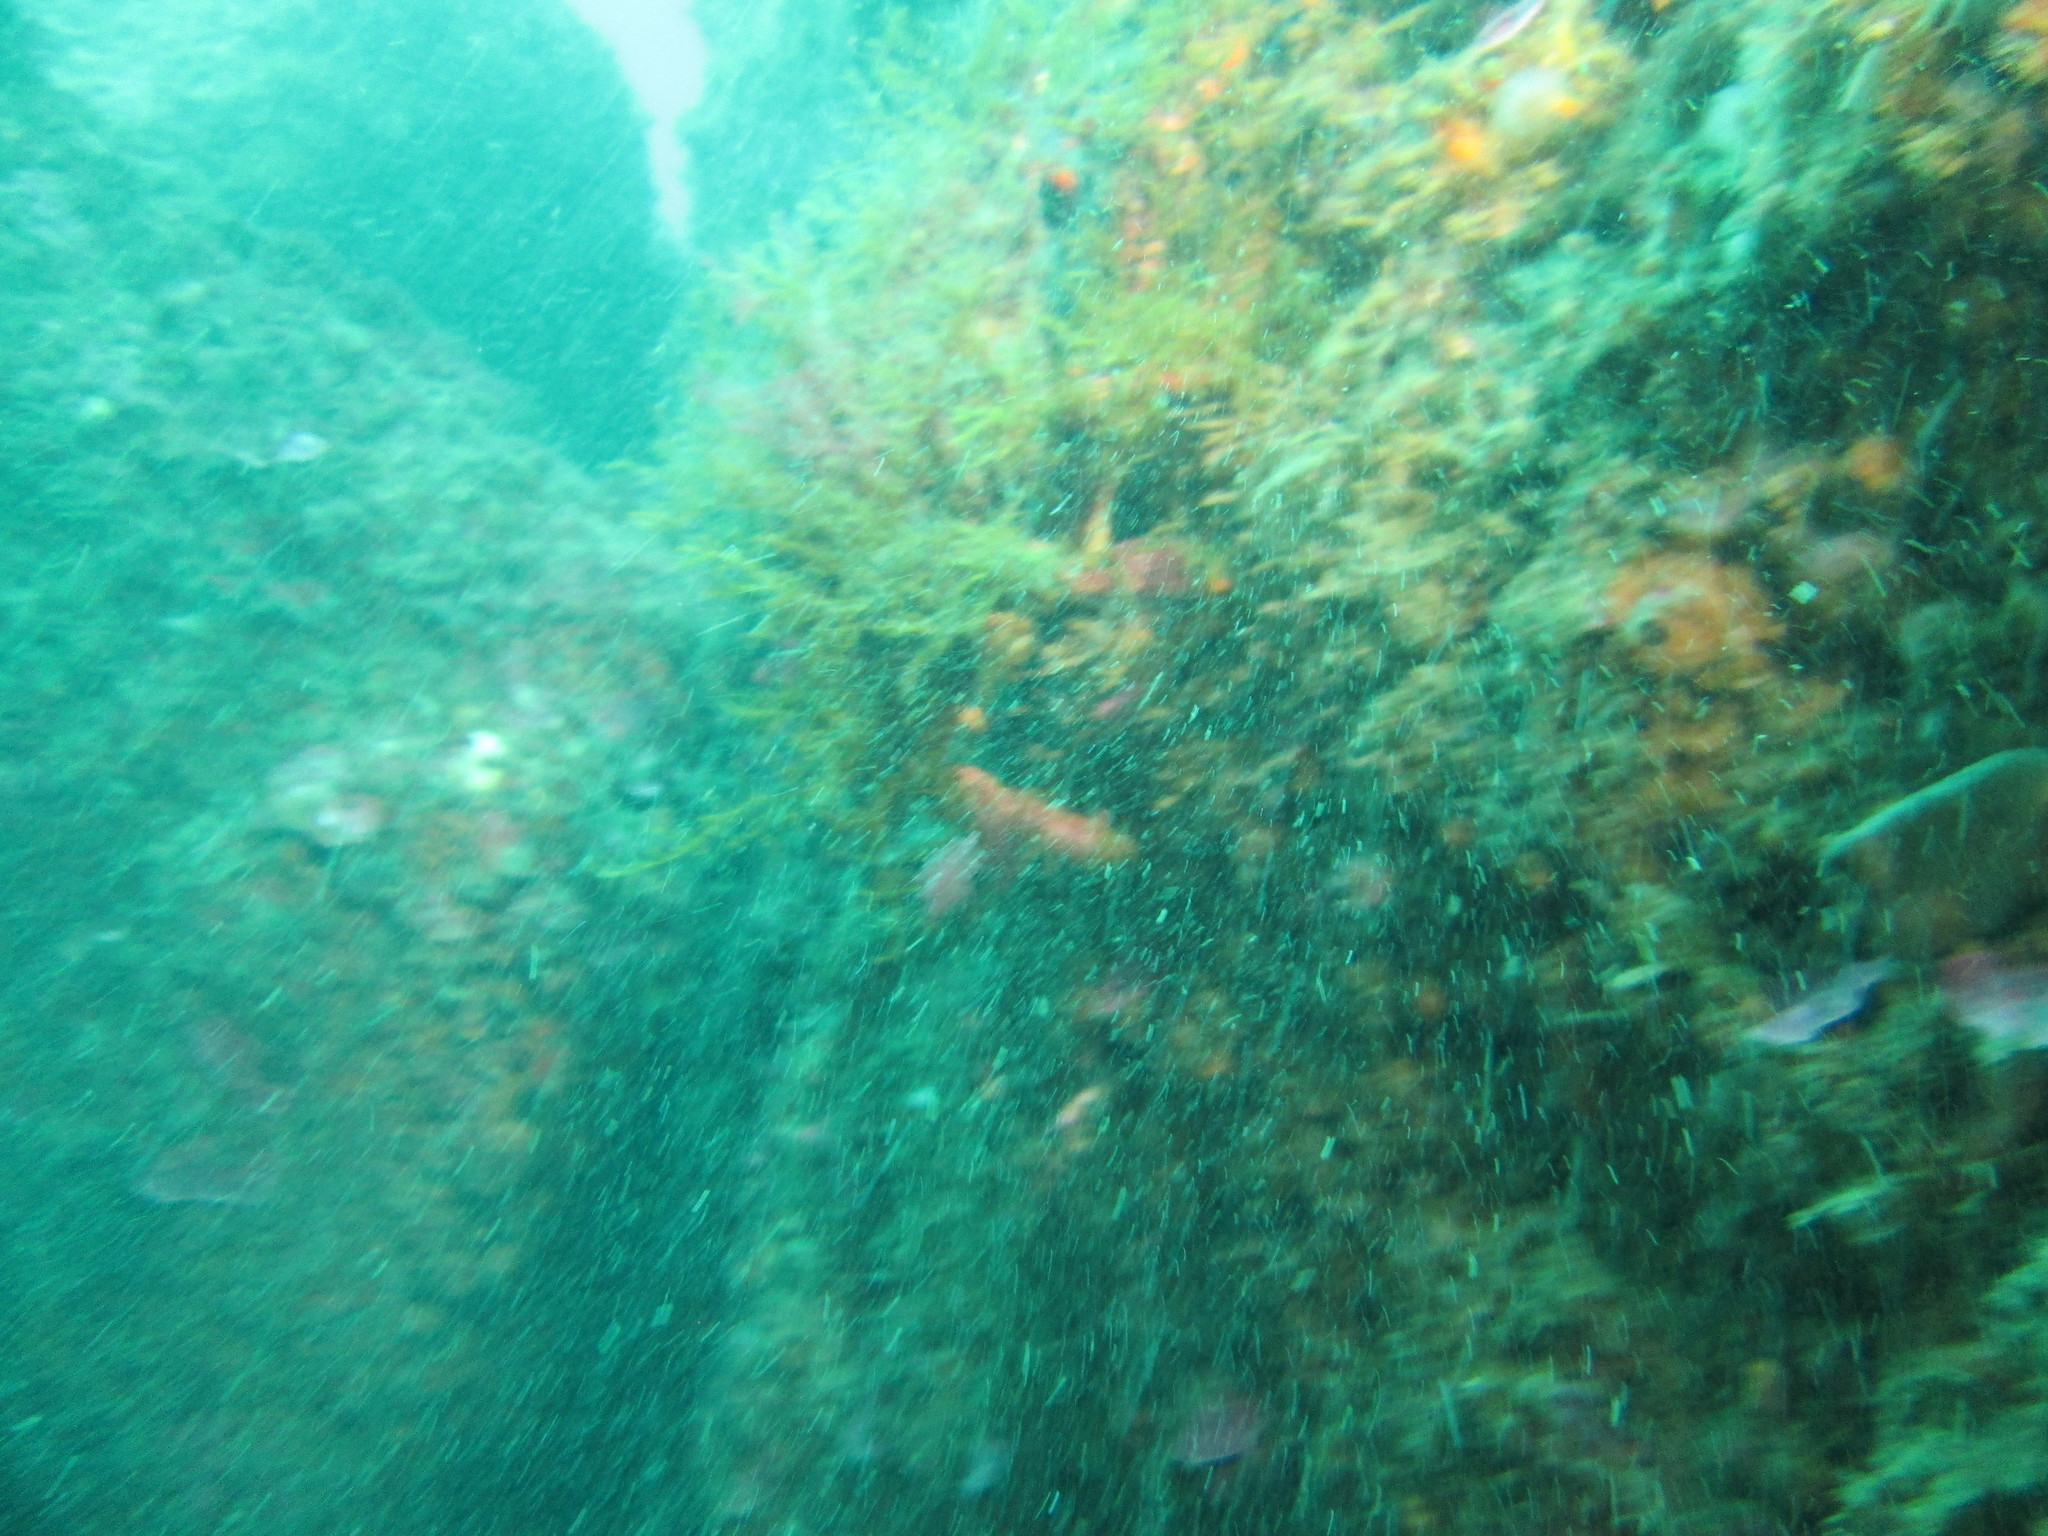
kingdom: Animalia
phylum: Arthropoda
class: Malacostraca
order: Decapoda
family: Majidae
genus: Maja
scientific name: Maja brachydactyla
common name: Common spider crab
